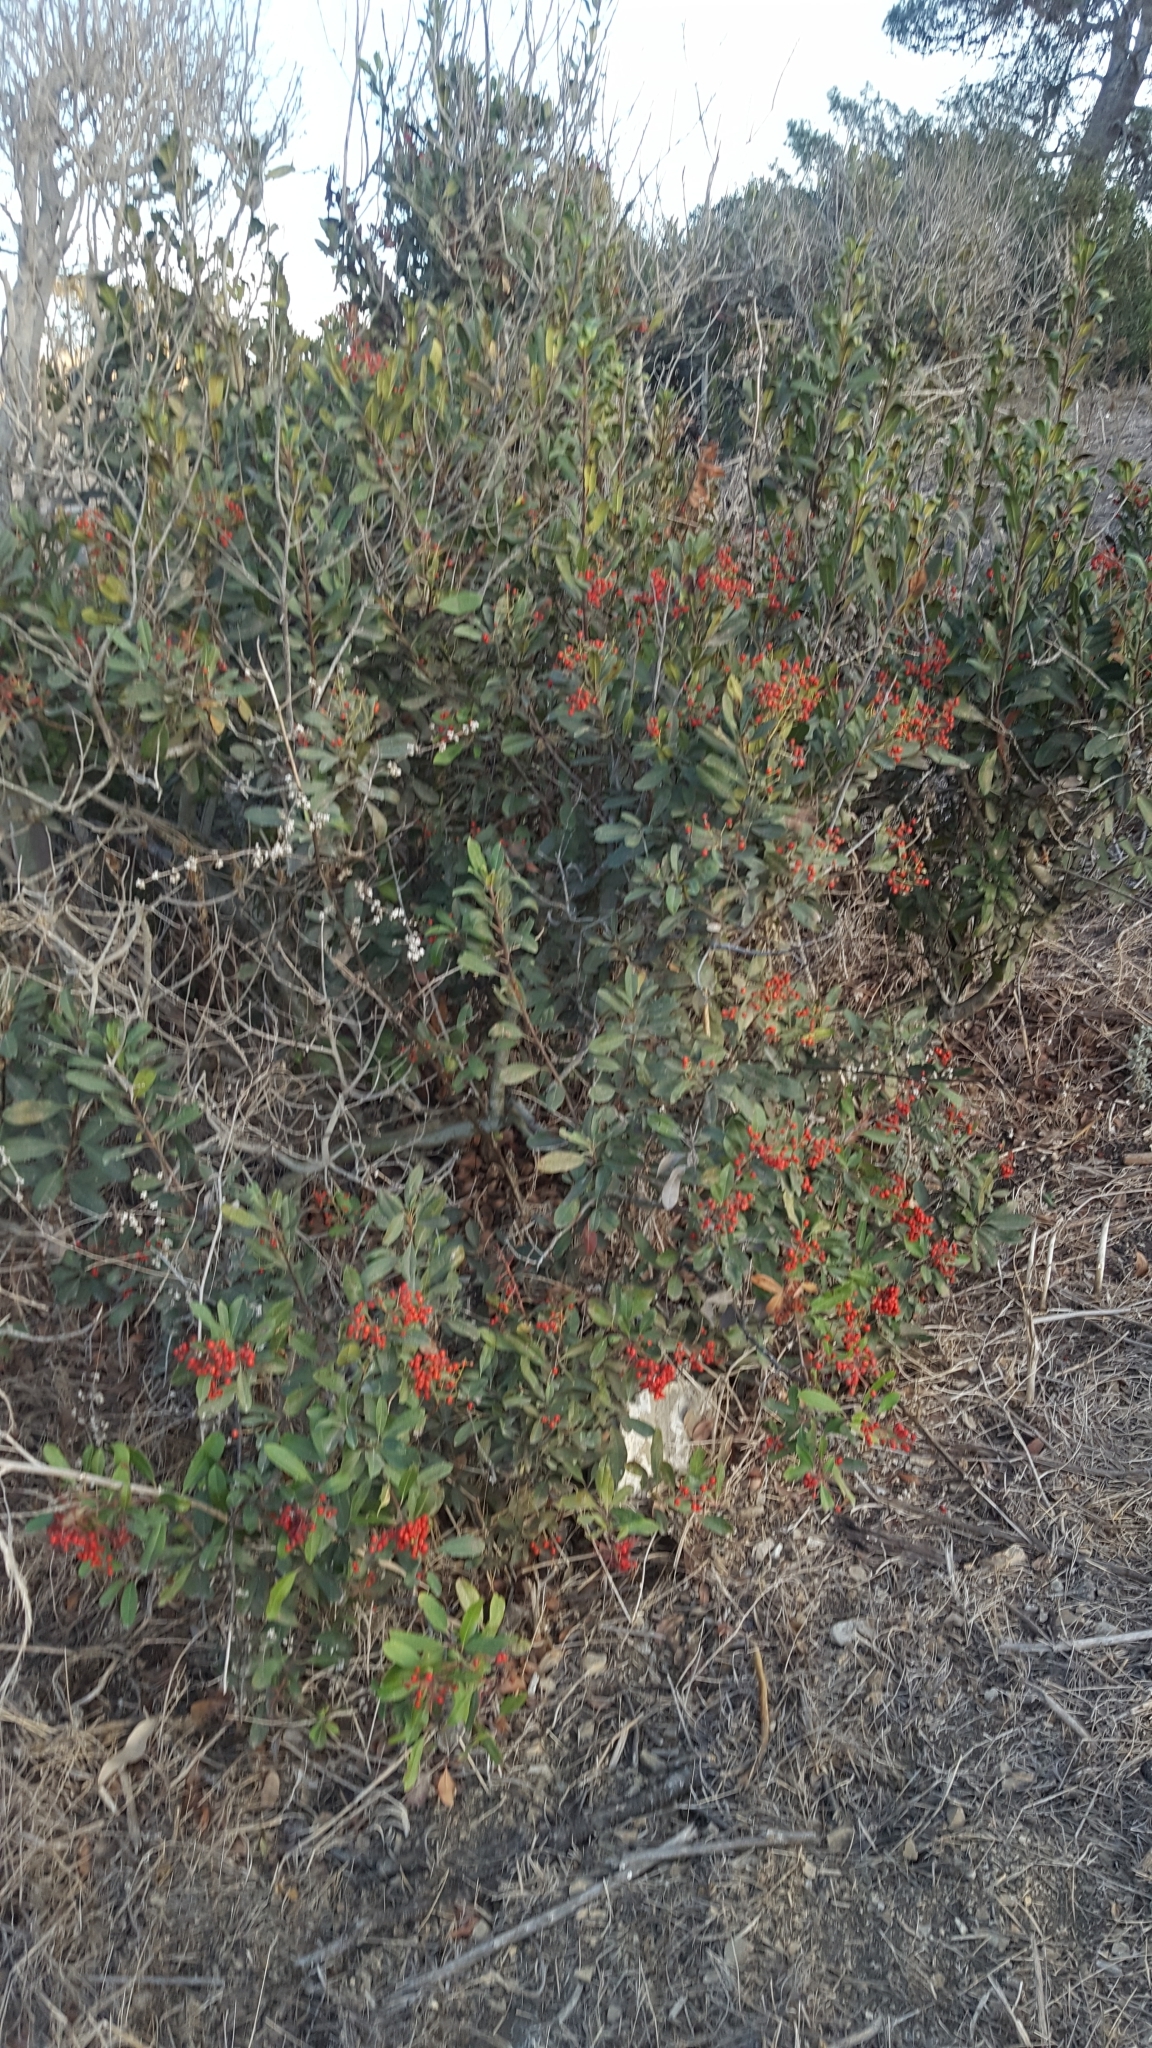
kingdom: Plantae
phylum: Tracheophyta
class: Magnoliopsida
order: Rosales
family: Rosaceae
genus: Heteromeles
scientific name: Heteromeles arbutifolia
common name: California-holly
